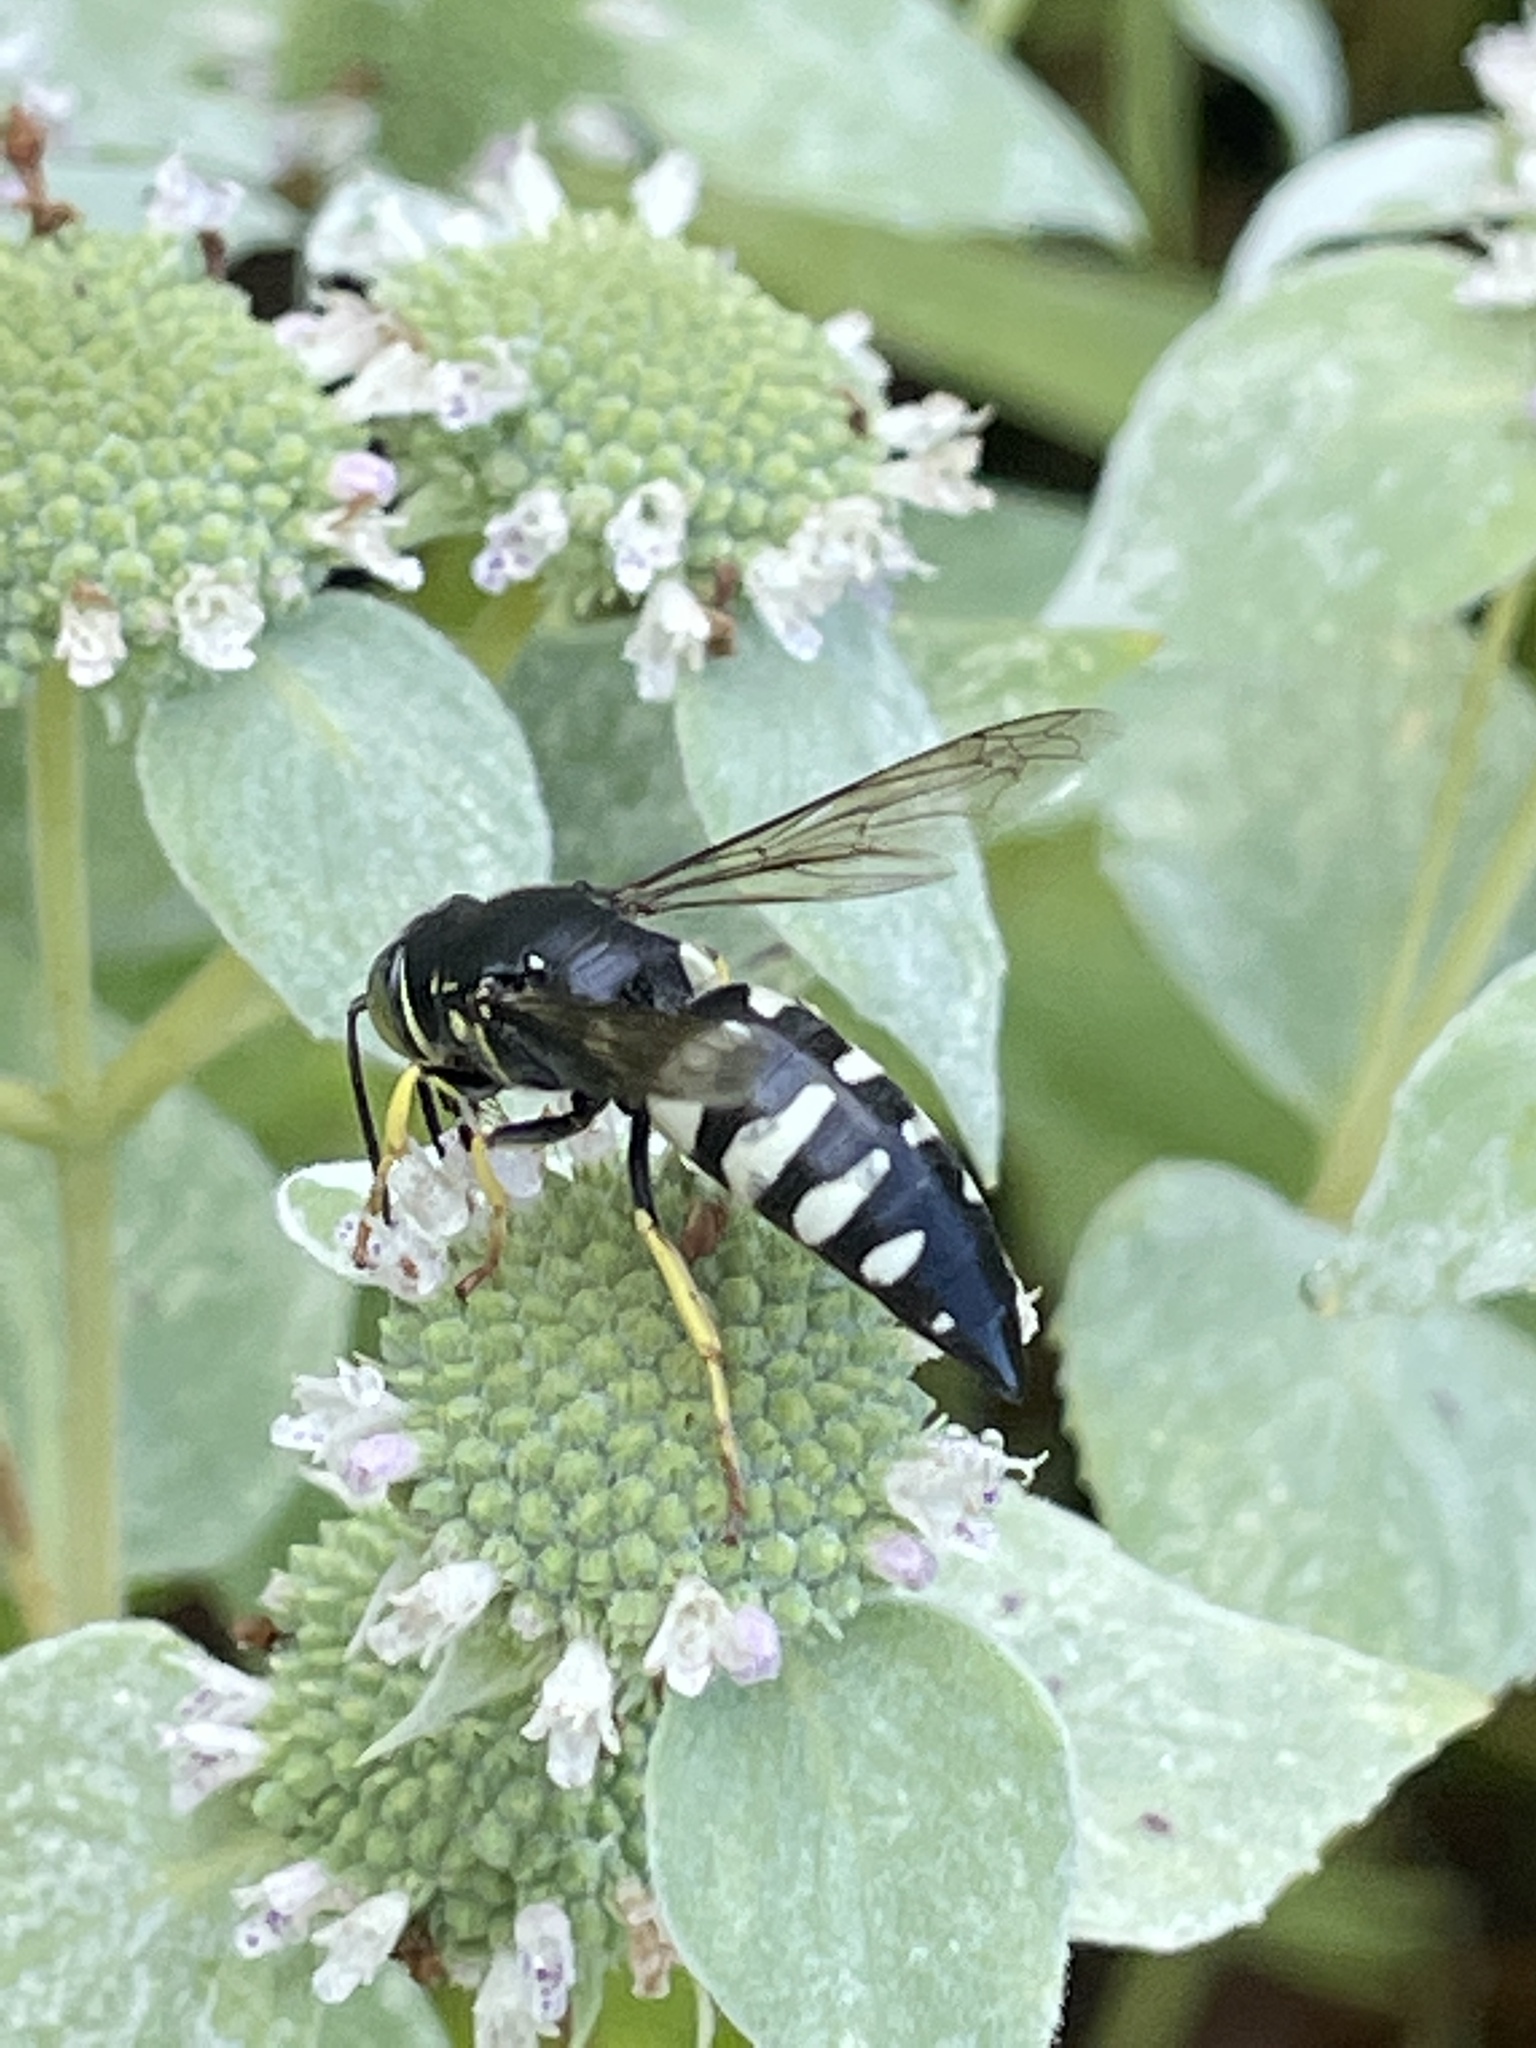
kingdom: Animalia
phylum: Arthropoda
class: Insecta
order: Hymenoptera
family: Crabronidae
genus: Bicyrtes
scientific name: Bicyrtes quadrifasciatus
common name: Four-banded stink bug hunter wasp
